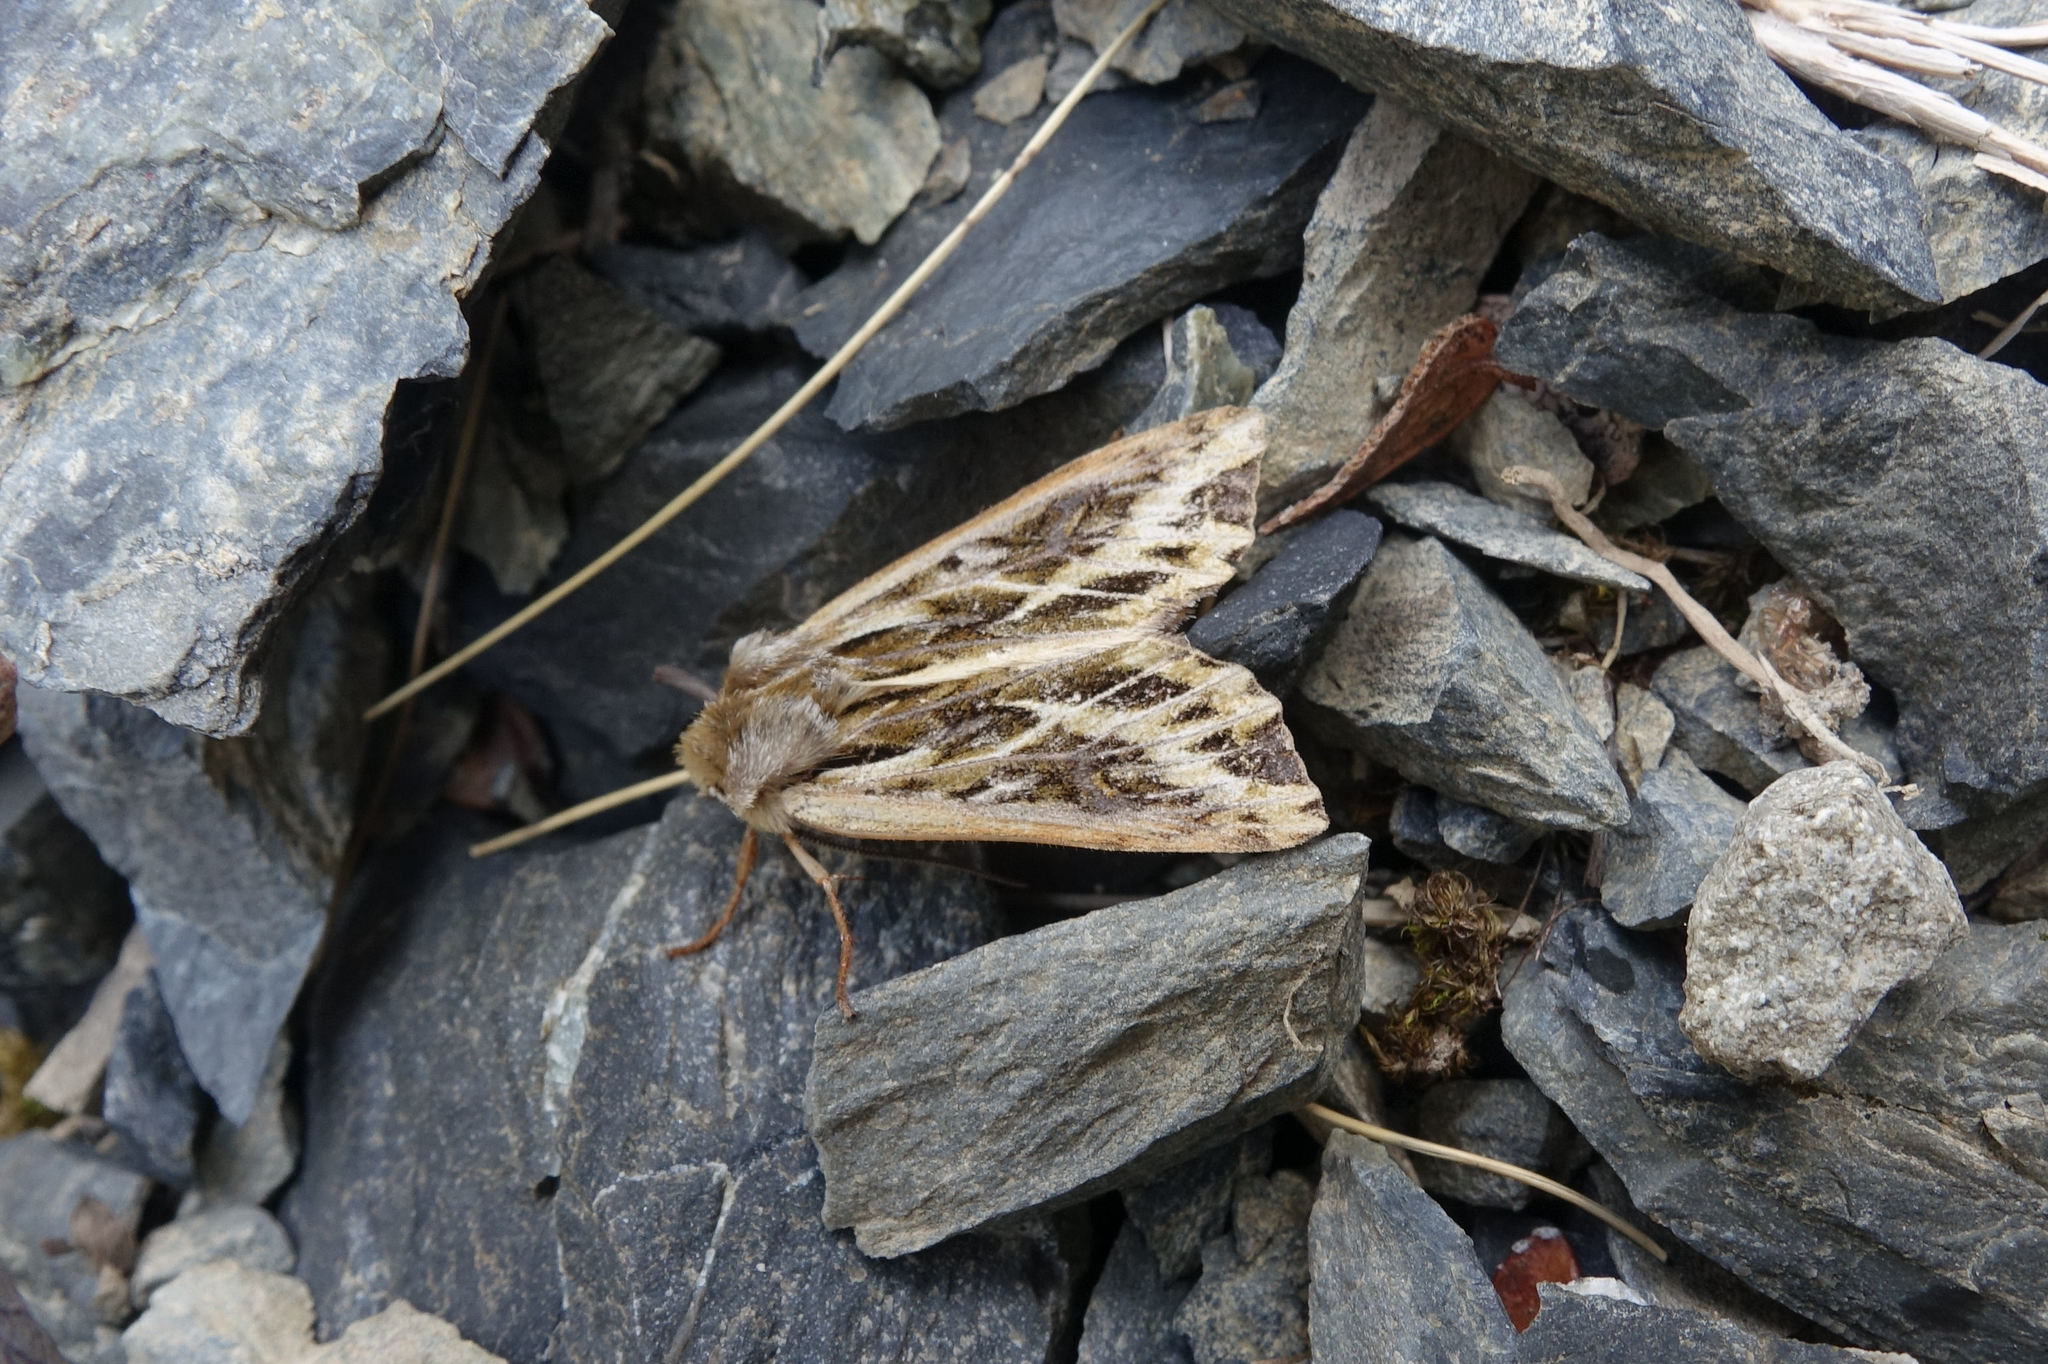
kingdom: Animalia
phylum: Arthropoda
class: Insecta
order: Lepidoptera
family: Noctuidae
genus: Ichneutica
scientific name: Ichneutica
